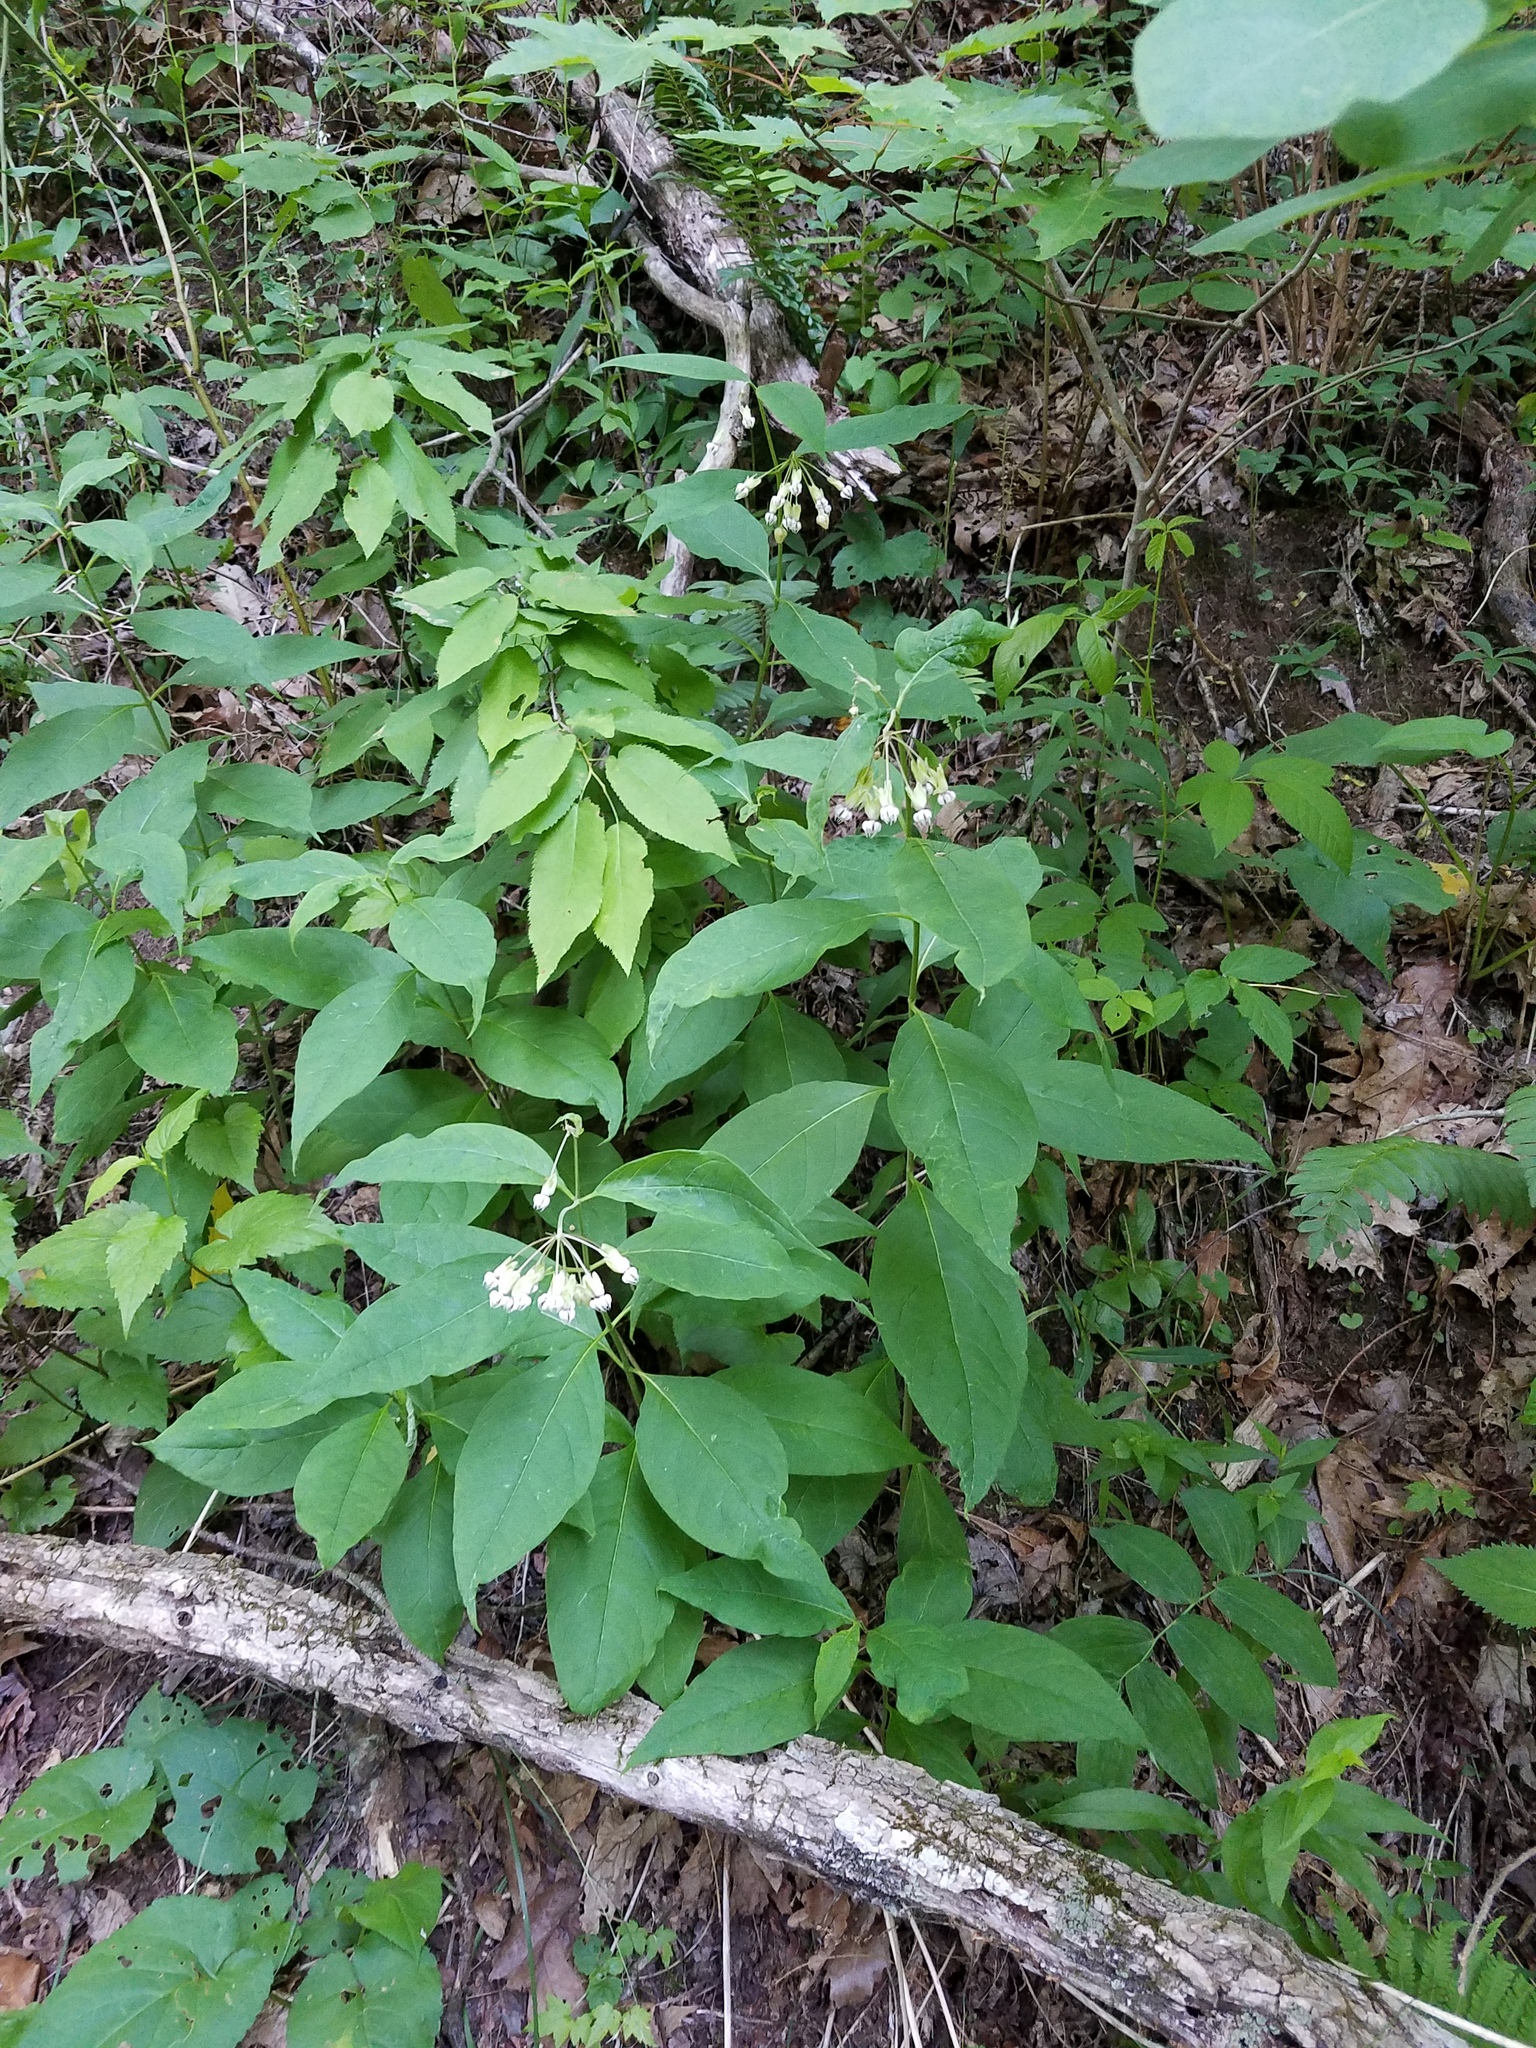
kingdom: Plantae
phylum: Tracheophyta
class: Magnoliopsida
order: Gentianales
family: Apocynaceae
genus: Asclepias
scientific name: Asclepias exaltata
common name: Poke milkweed
